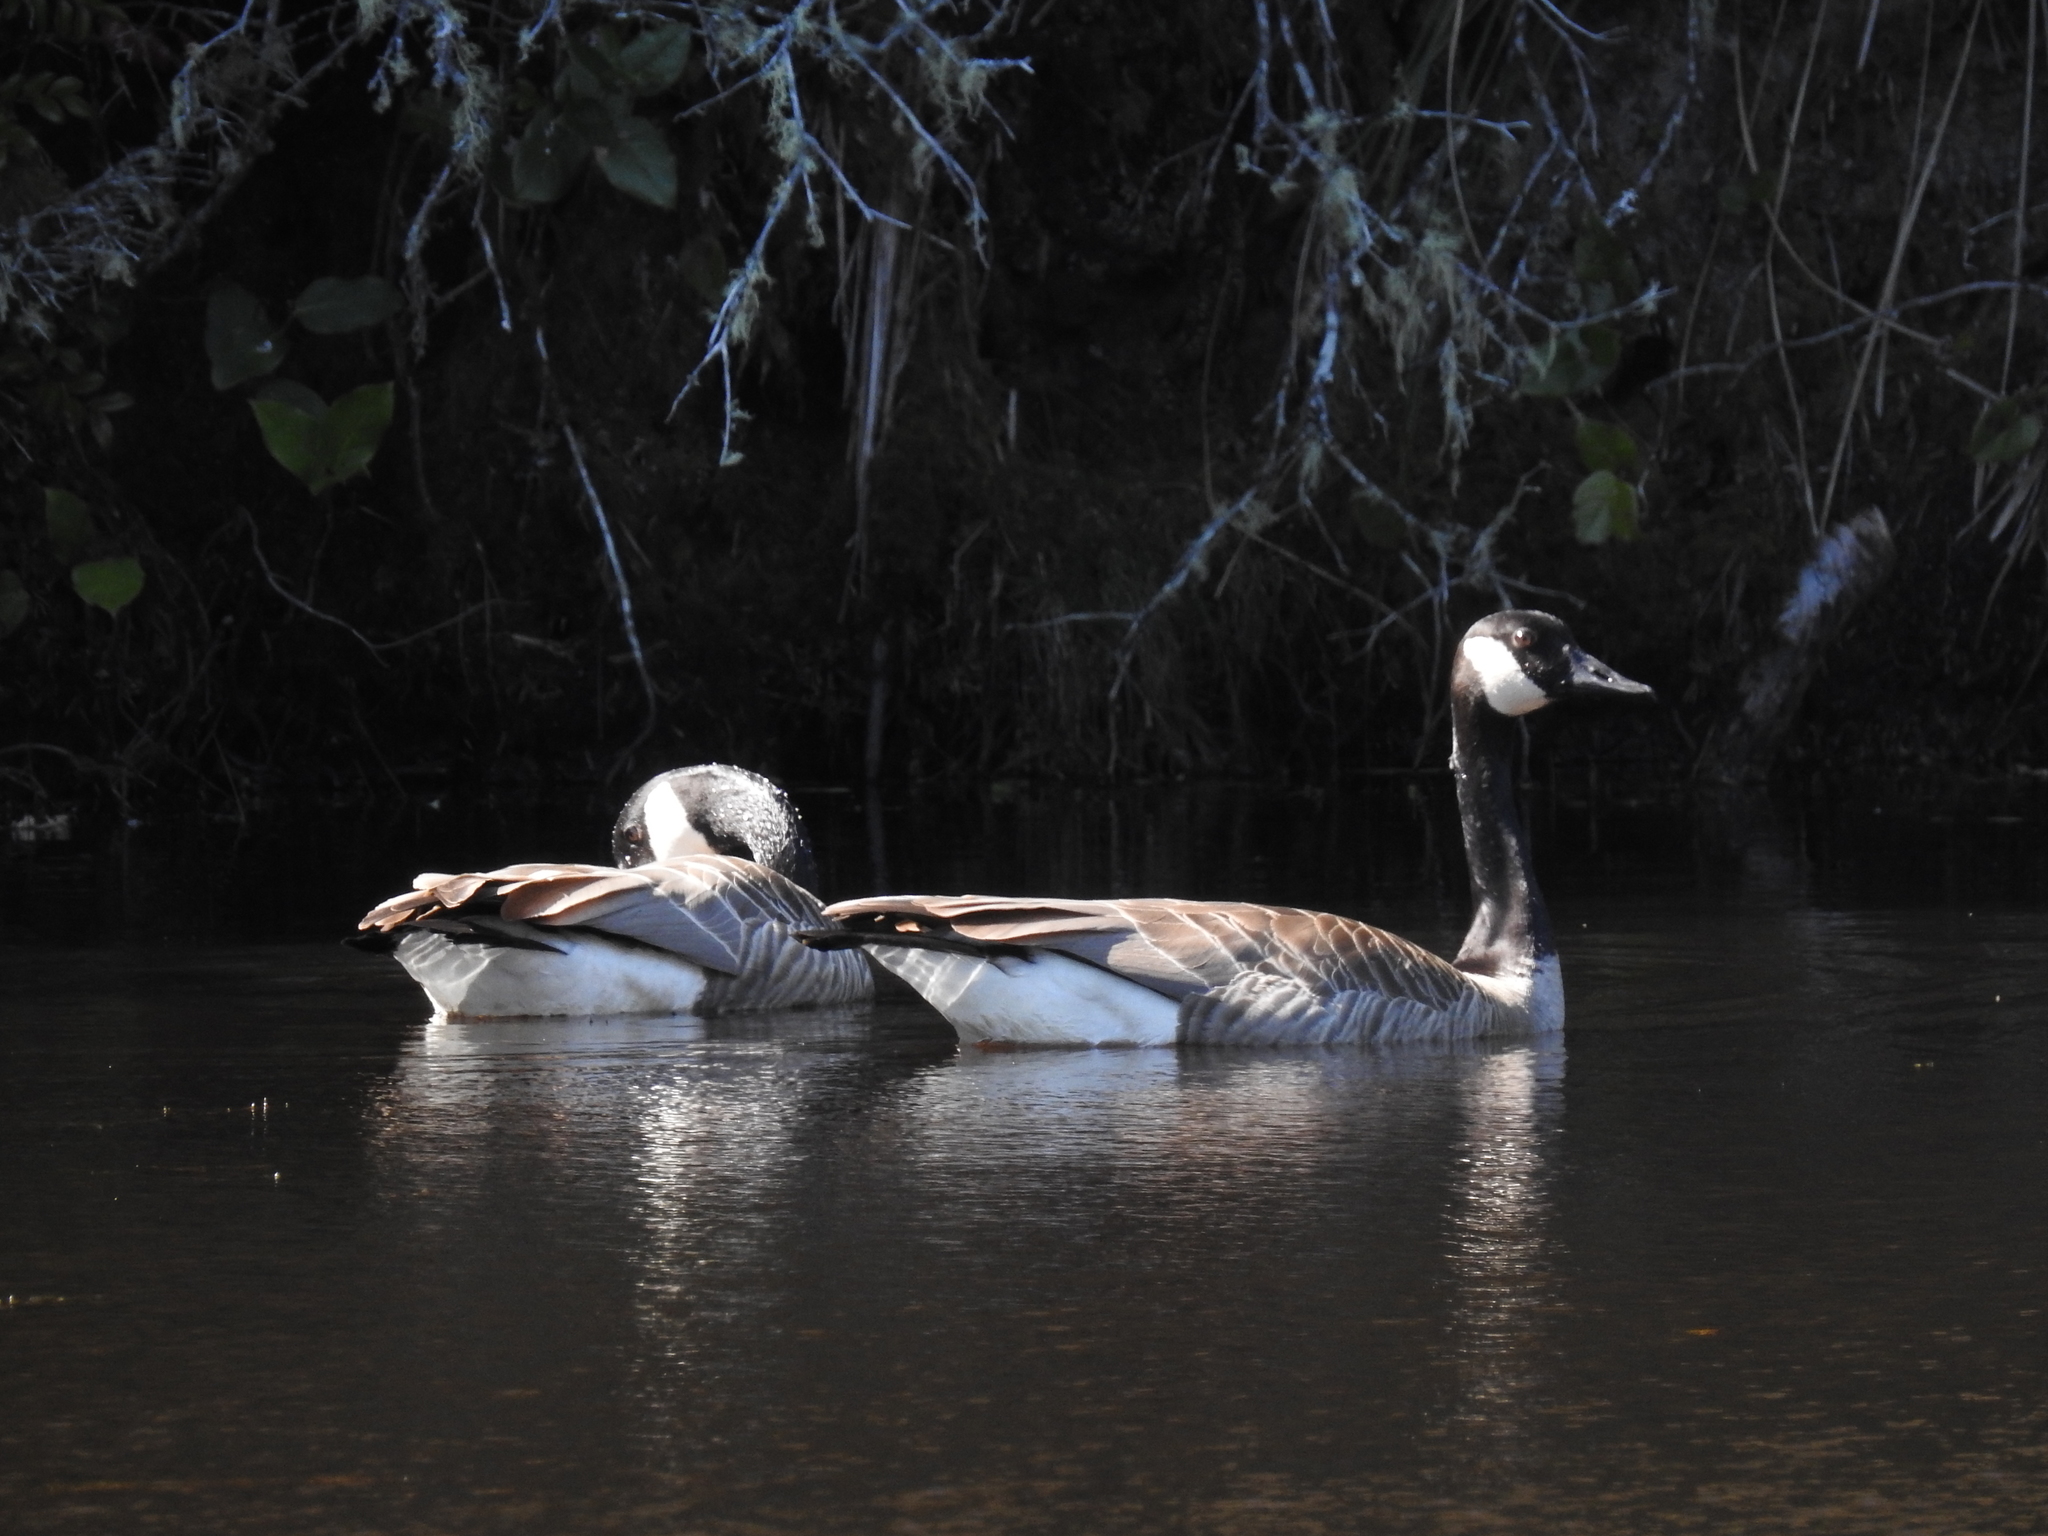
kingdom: Animalia
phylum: Chordata
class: Aves
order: Anseriformes
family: Anatidae
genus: Branta
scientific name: Branta canadensis
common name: Canada goose
